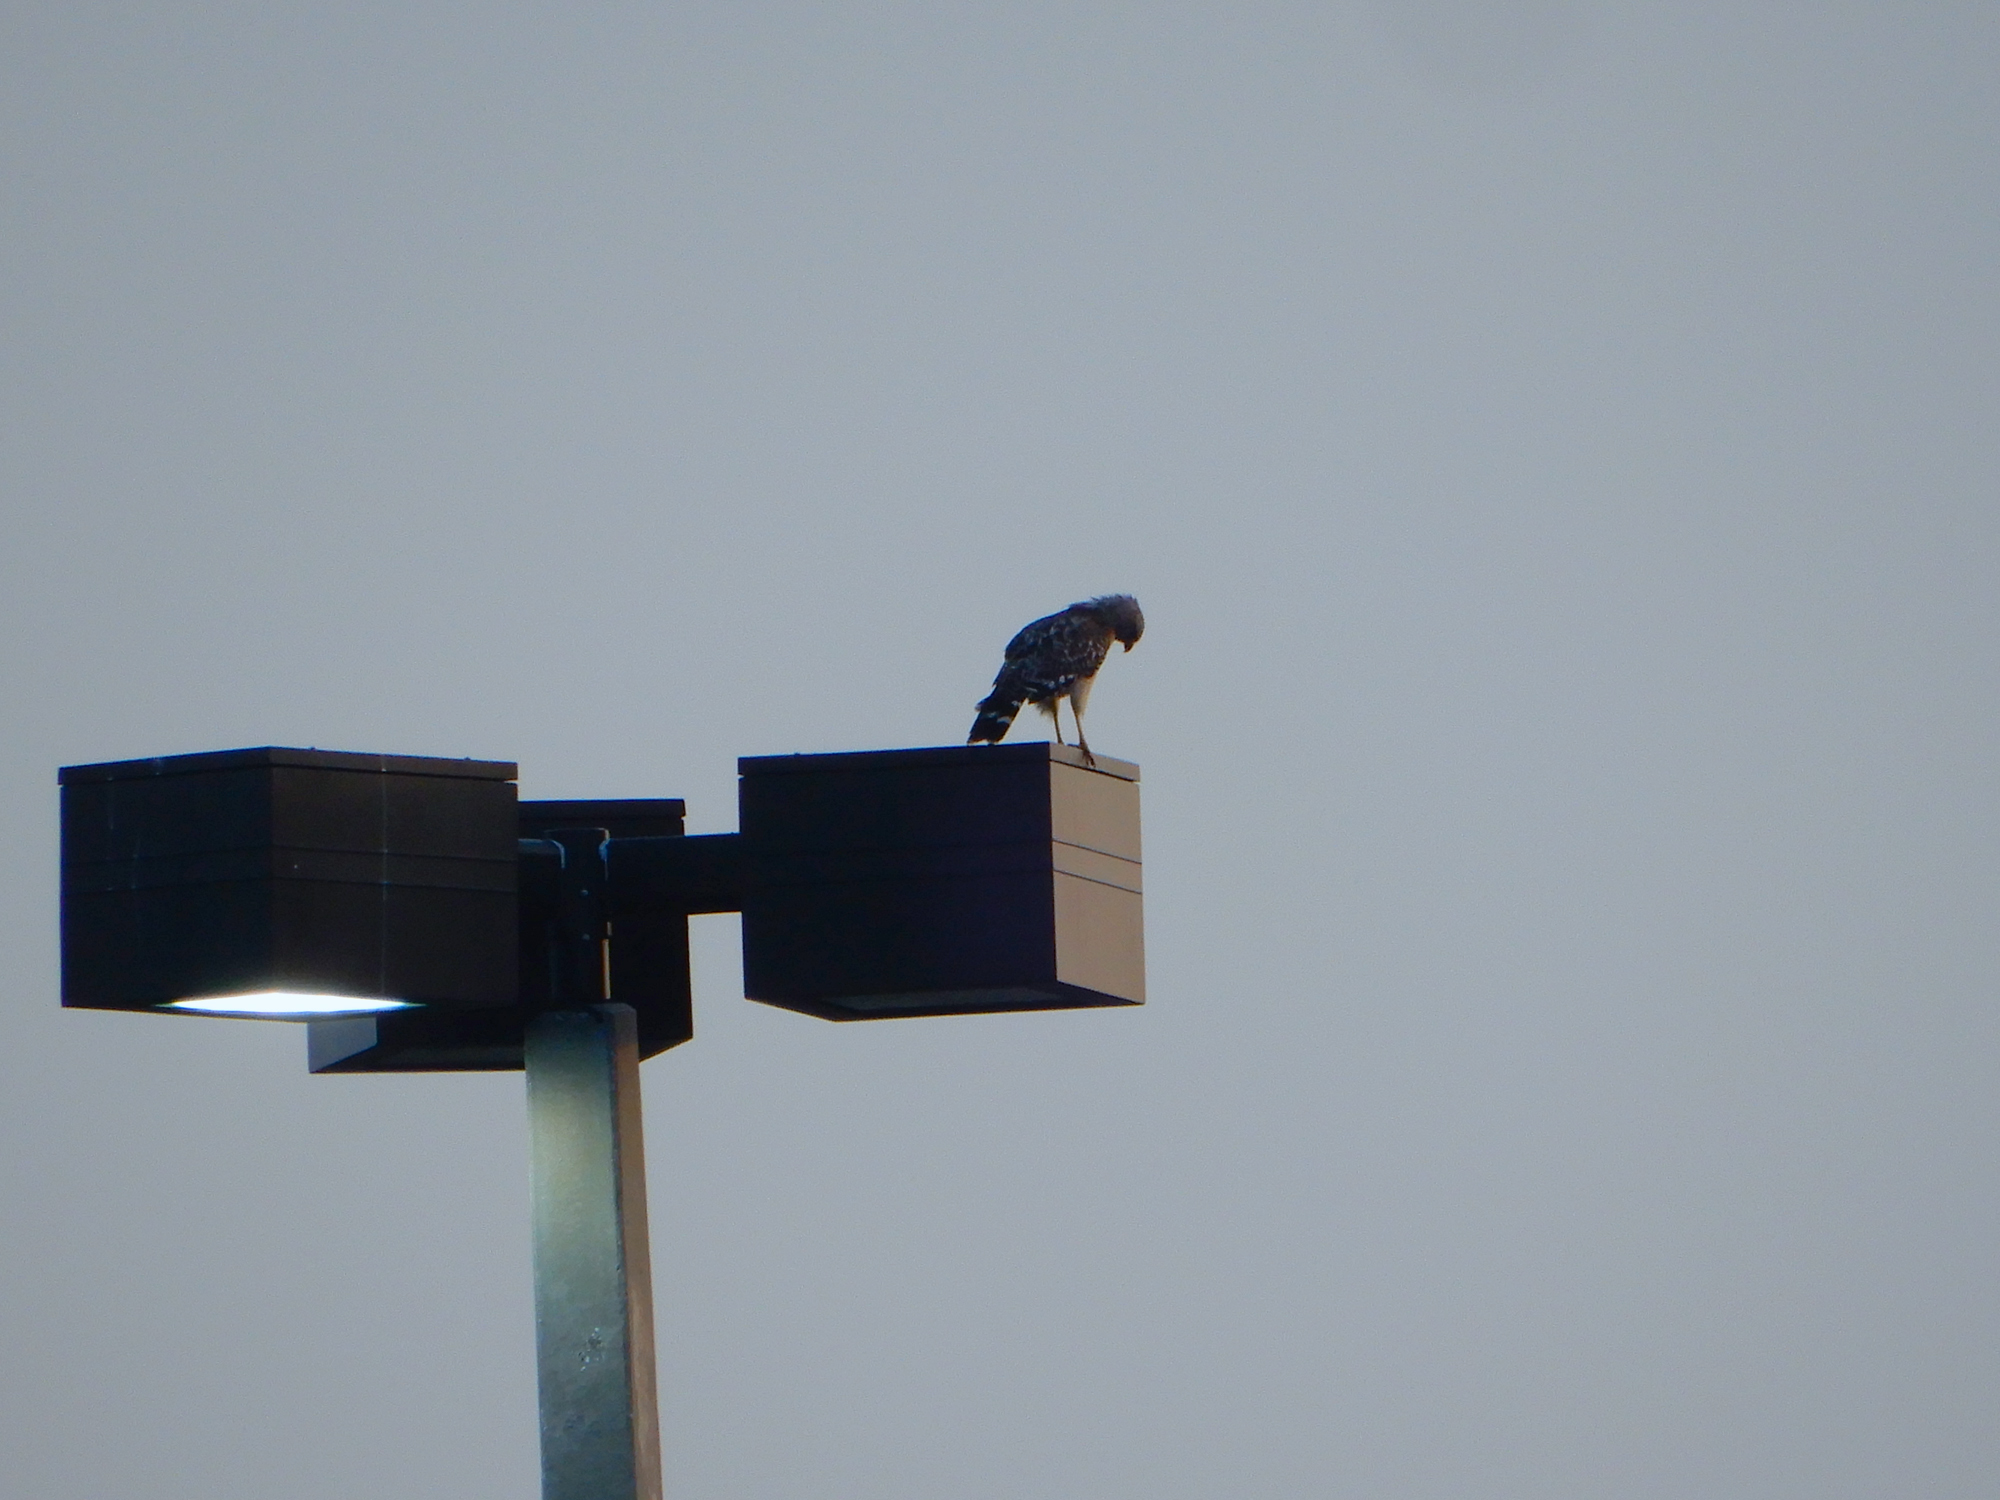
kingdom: Animalia
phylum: Chordata
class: Aves
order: Accipitriformes
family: Accipitridae
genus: Buteo
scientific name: Buteo lineatus
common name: Red-shouldered hawk
